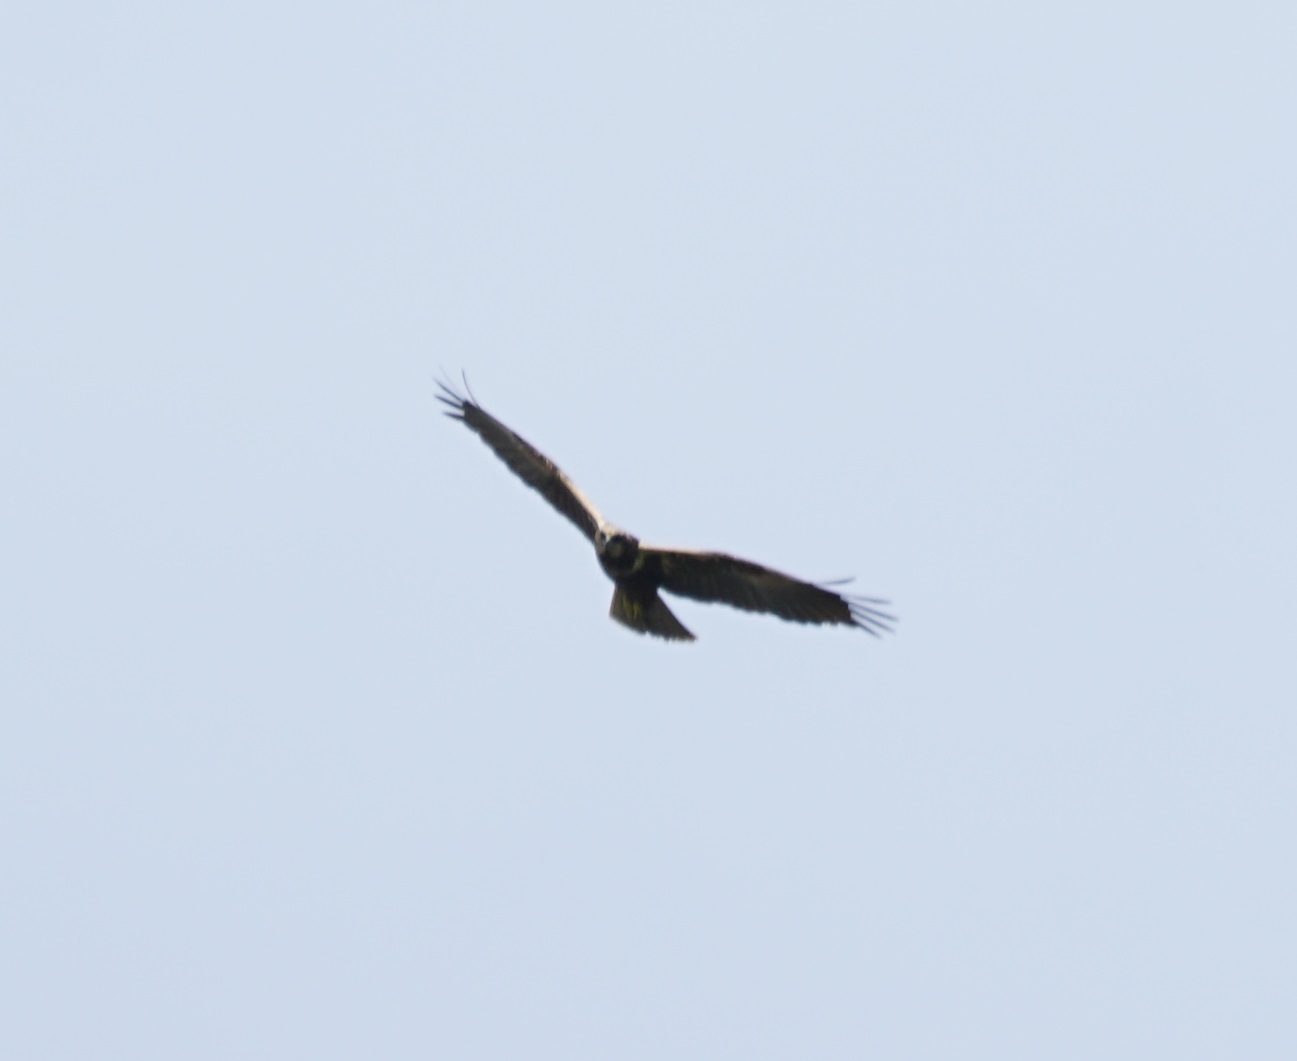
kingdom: Animalia
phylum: Chordata
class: Aves
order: Accipitriformes
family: Accipitridae
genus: Circus
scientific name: Circus aeruginosus
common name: Western marsh harrier
